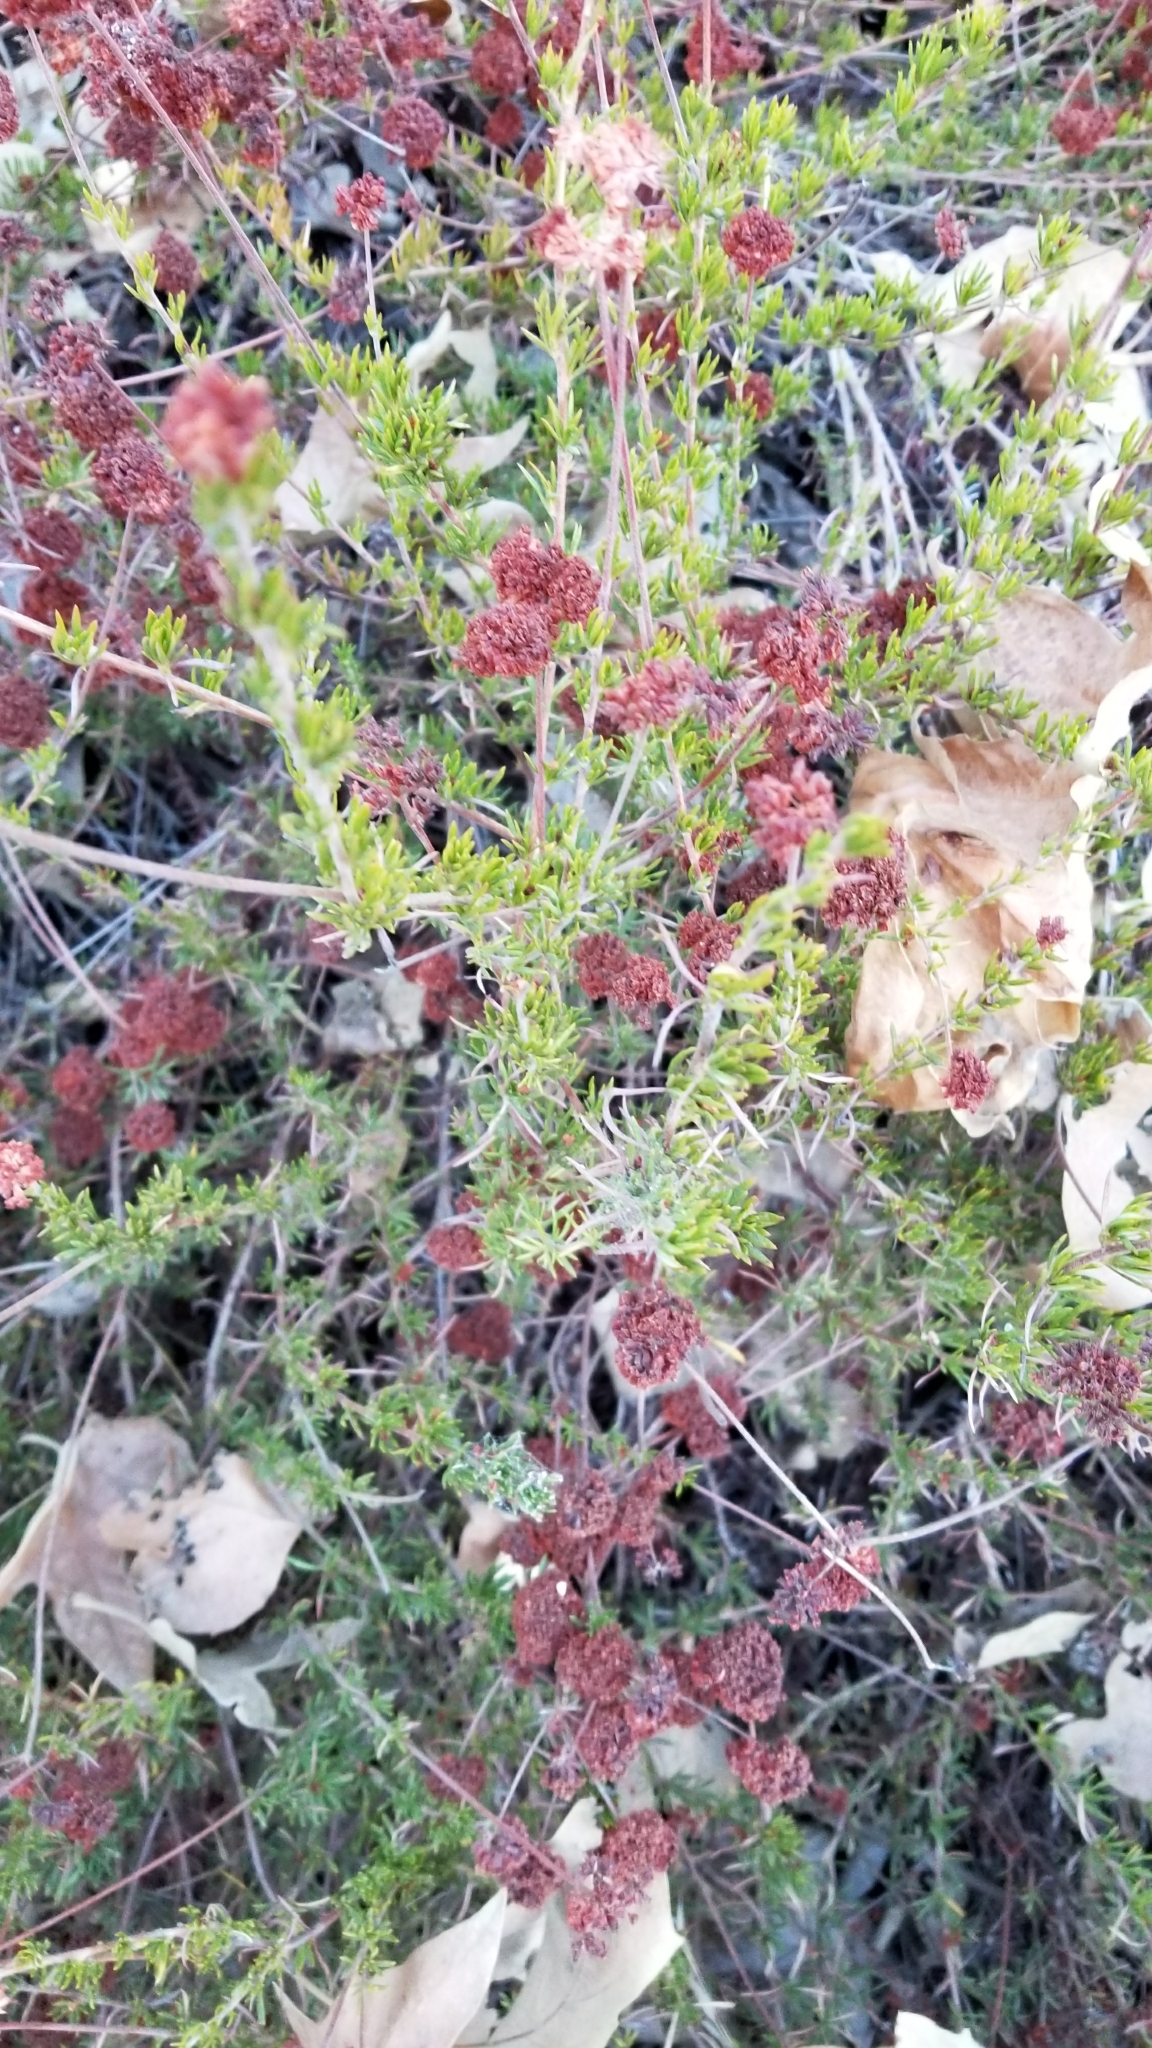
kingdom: Plantae
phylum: Tracheophyta
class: Magnoliopsida
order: Caryophyllales
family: Polygonaceae
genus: Eriogonum
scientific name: Eriogonum fasciculatum
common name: California wild buckwheat
